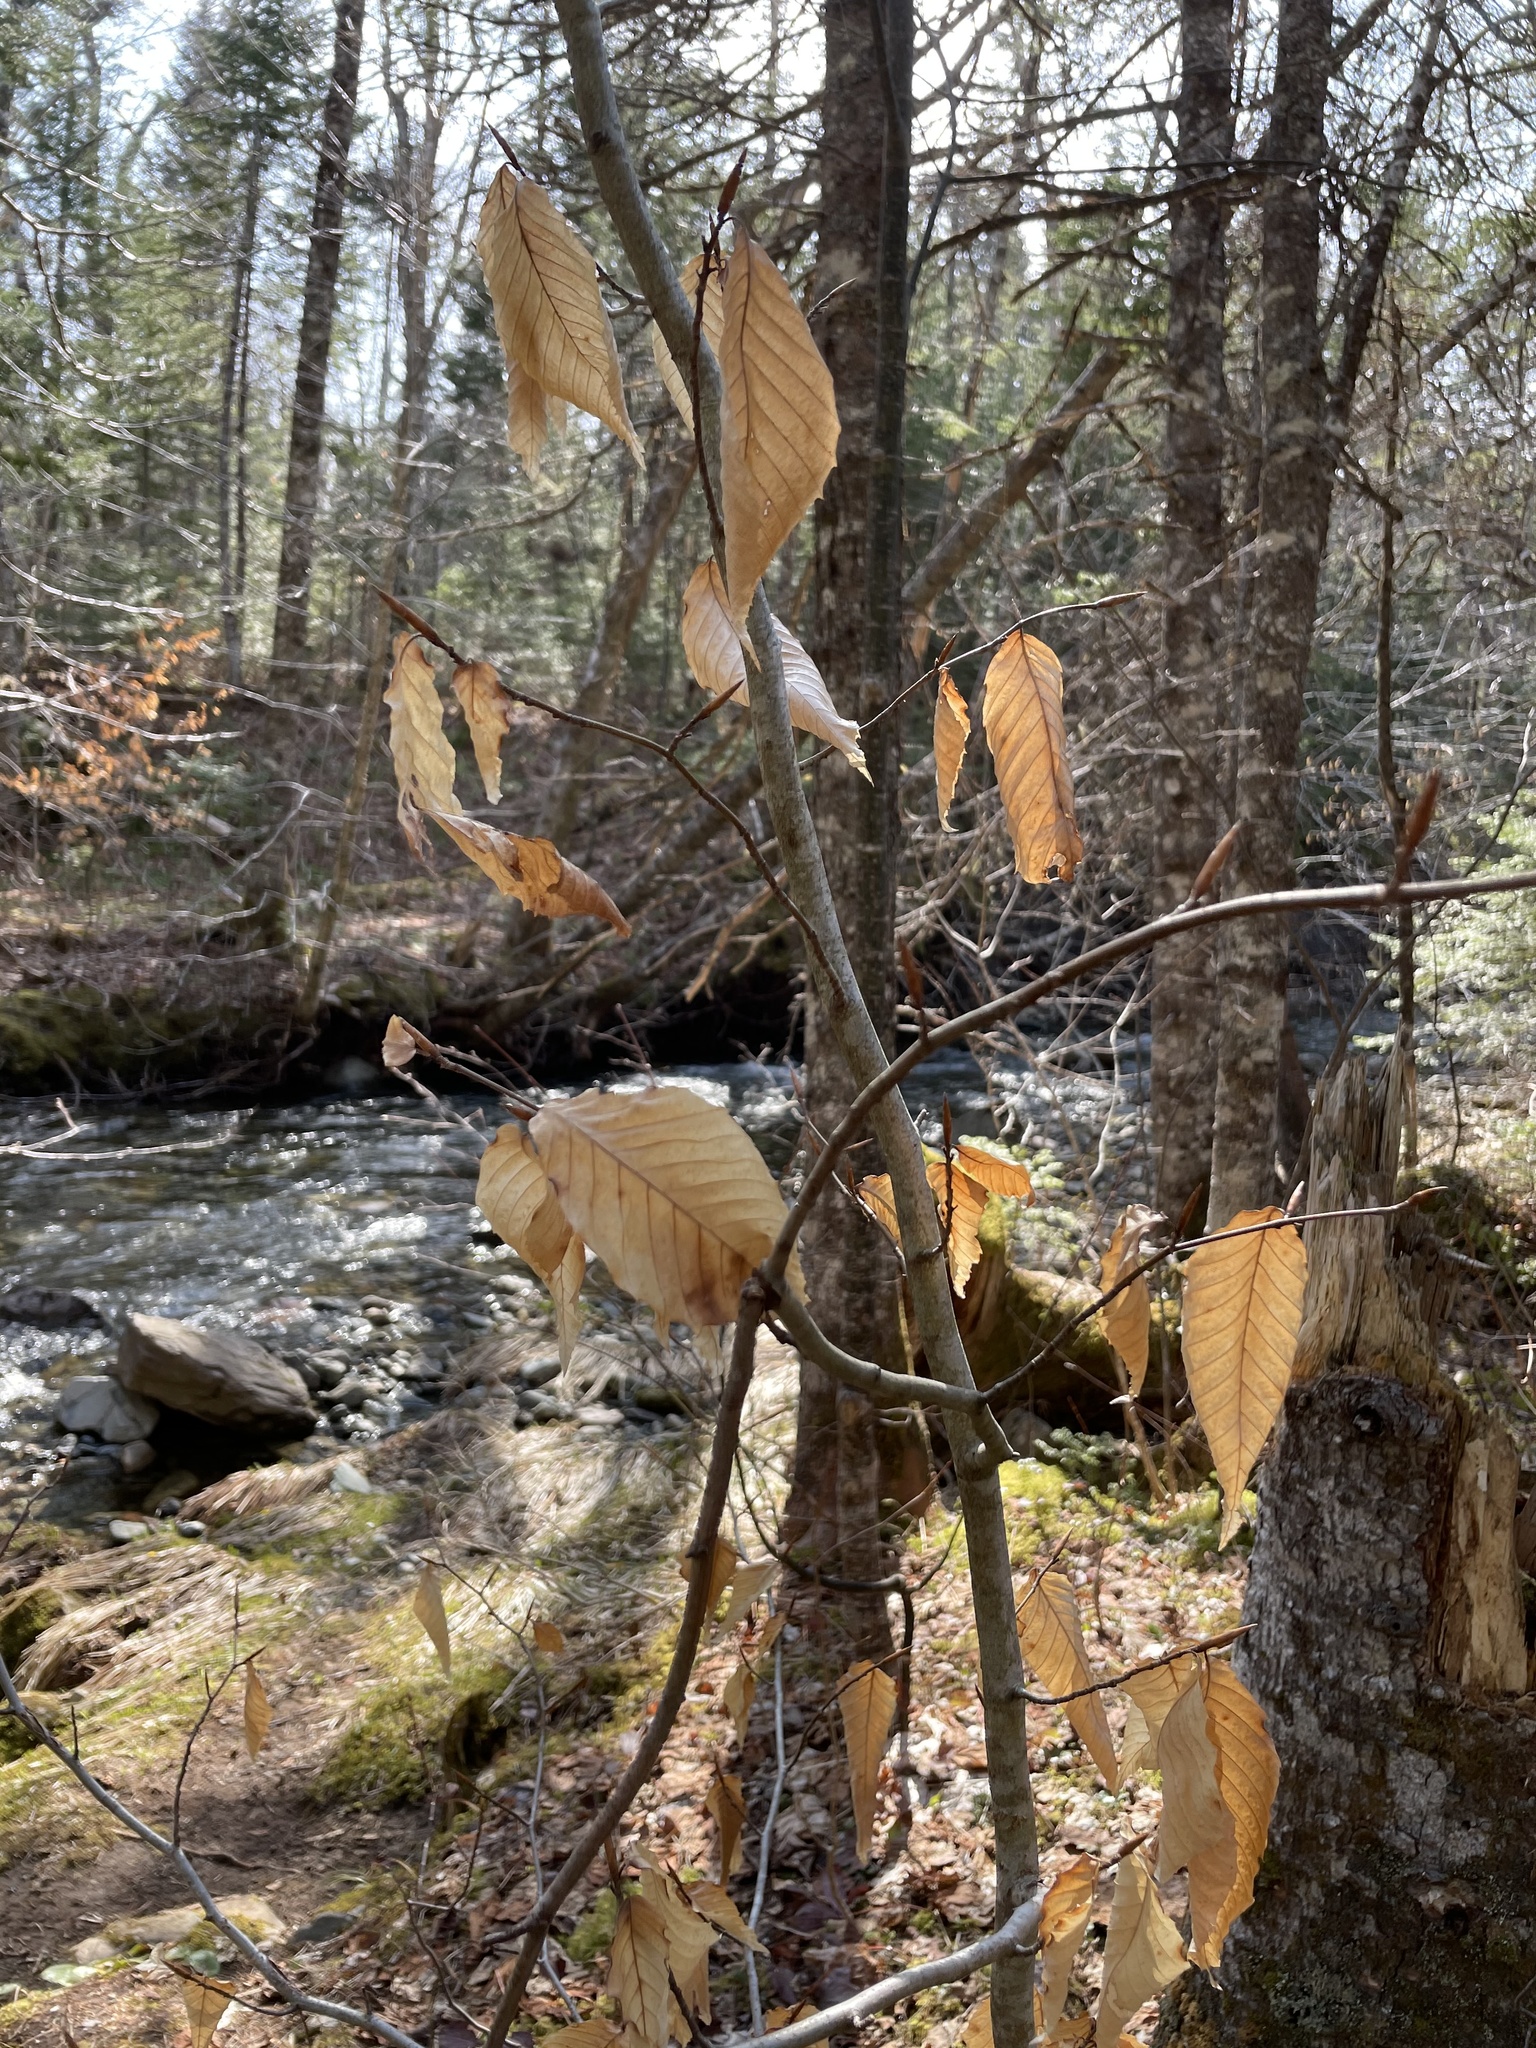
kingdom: Plantae
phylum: Tracheophyta
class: Magnoliopsida
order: Fagales
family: Fagaceae
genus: Fagus
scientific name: Fagus grandifolia
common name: American beech
